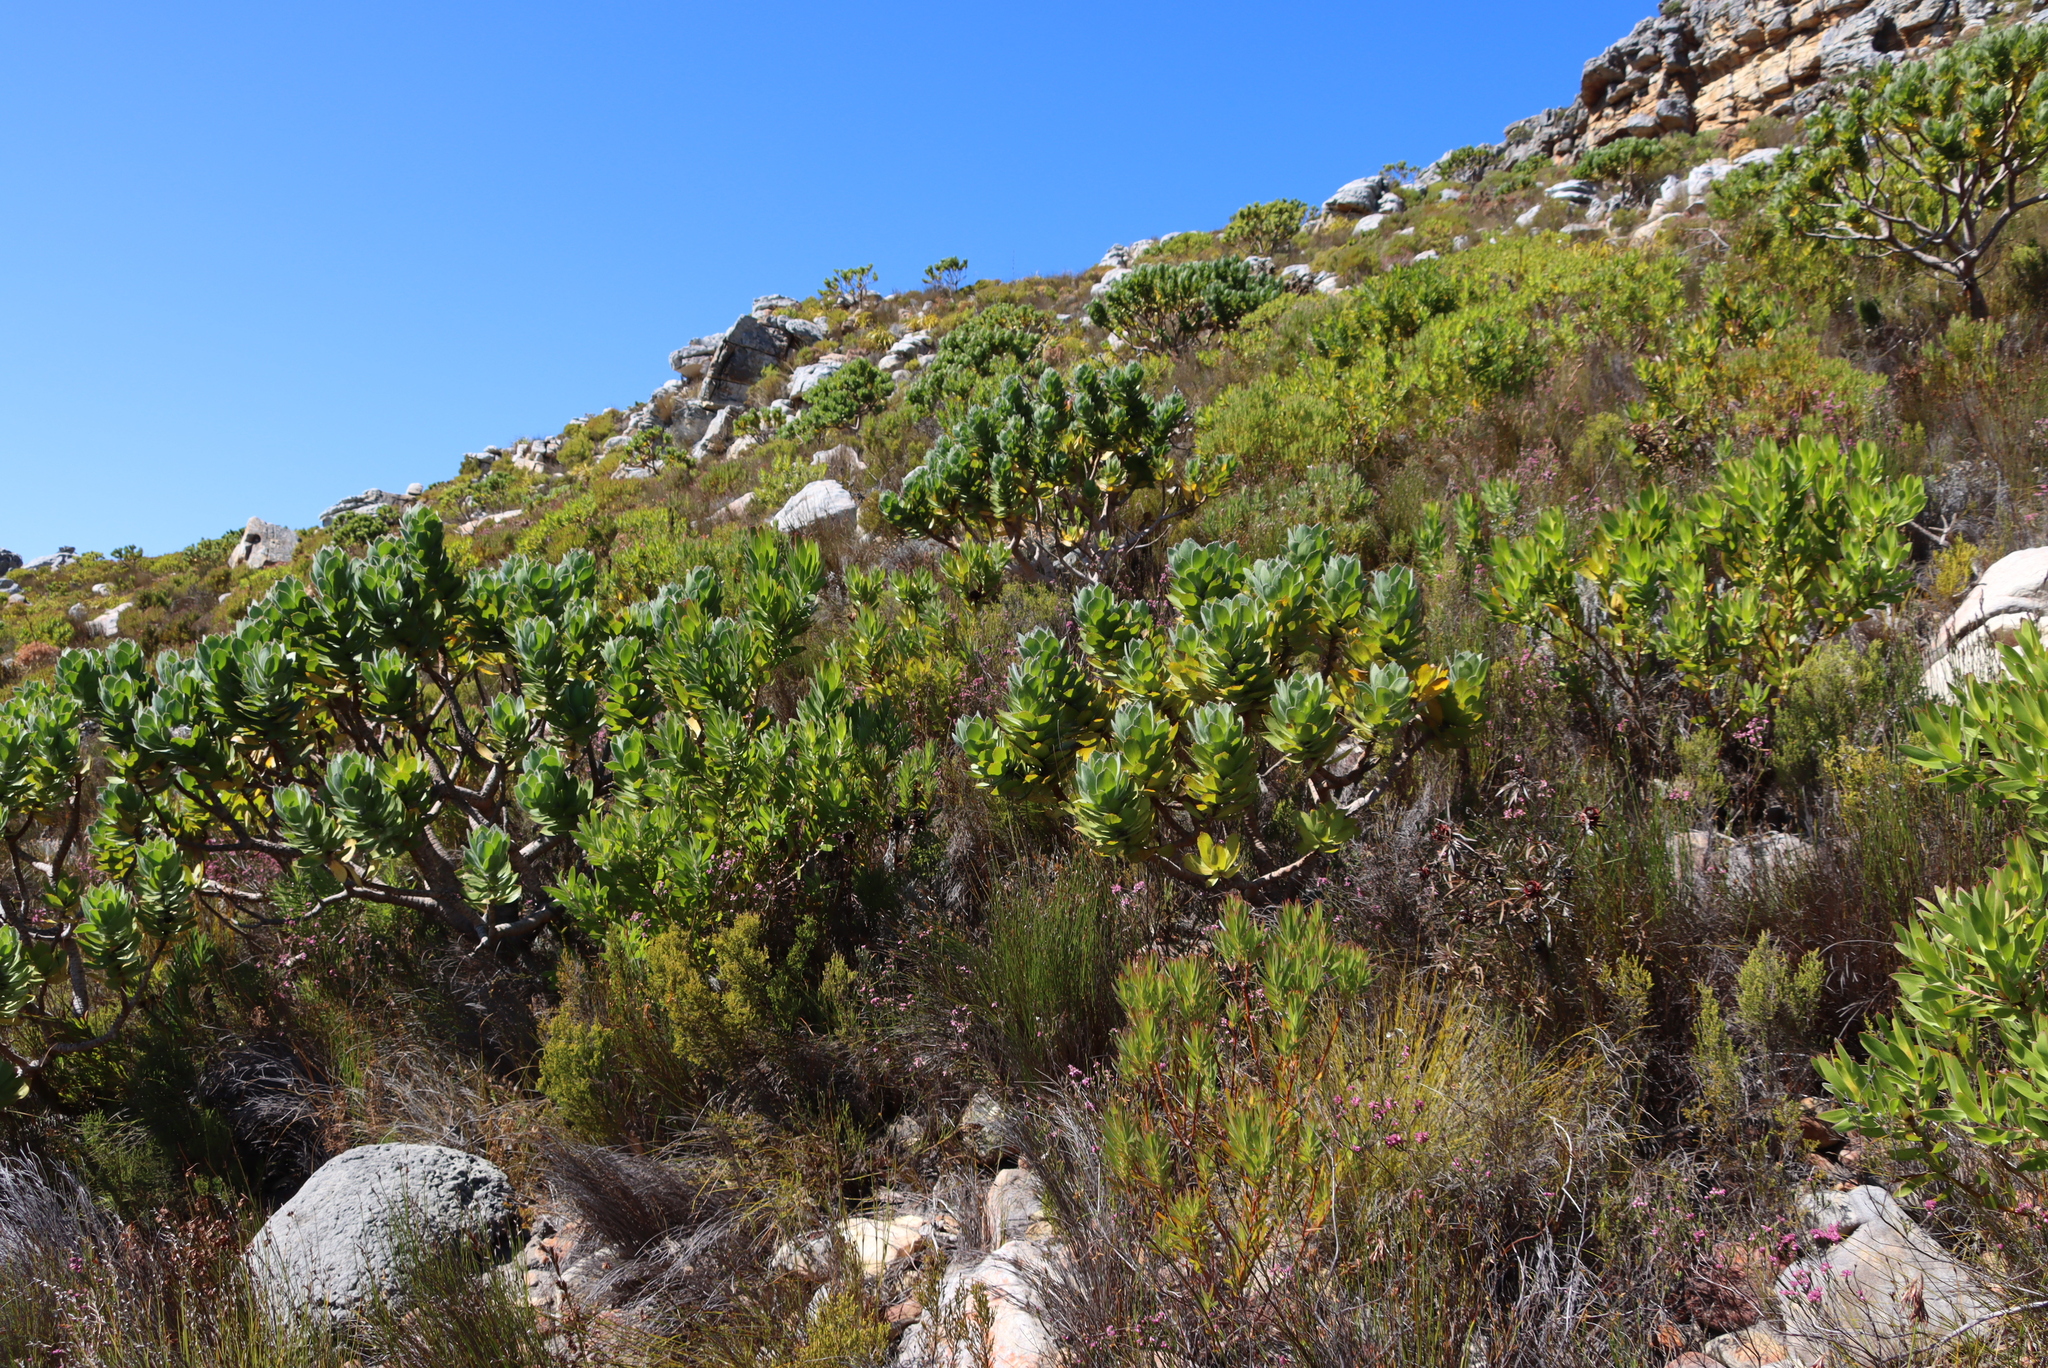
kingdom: Plantae
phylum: Tracheophyta
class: Magnoliopsida
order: Proteales
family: Proteaceae
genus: Leucospermum
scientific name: Leucospermum conocarpodendron
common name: Tree pincushion
